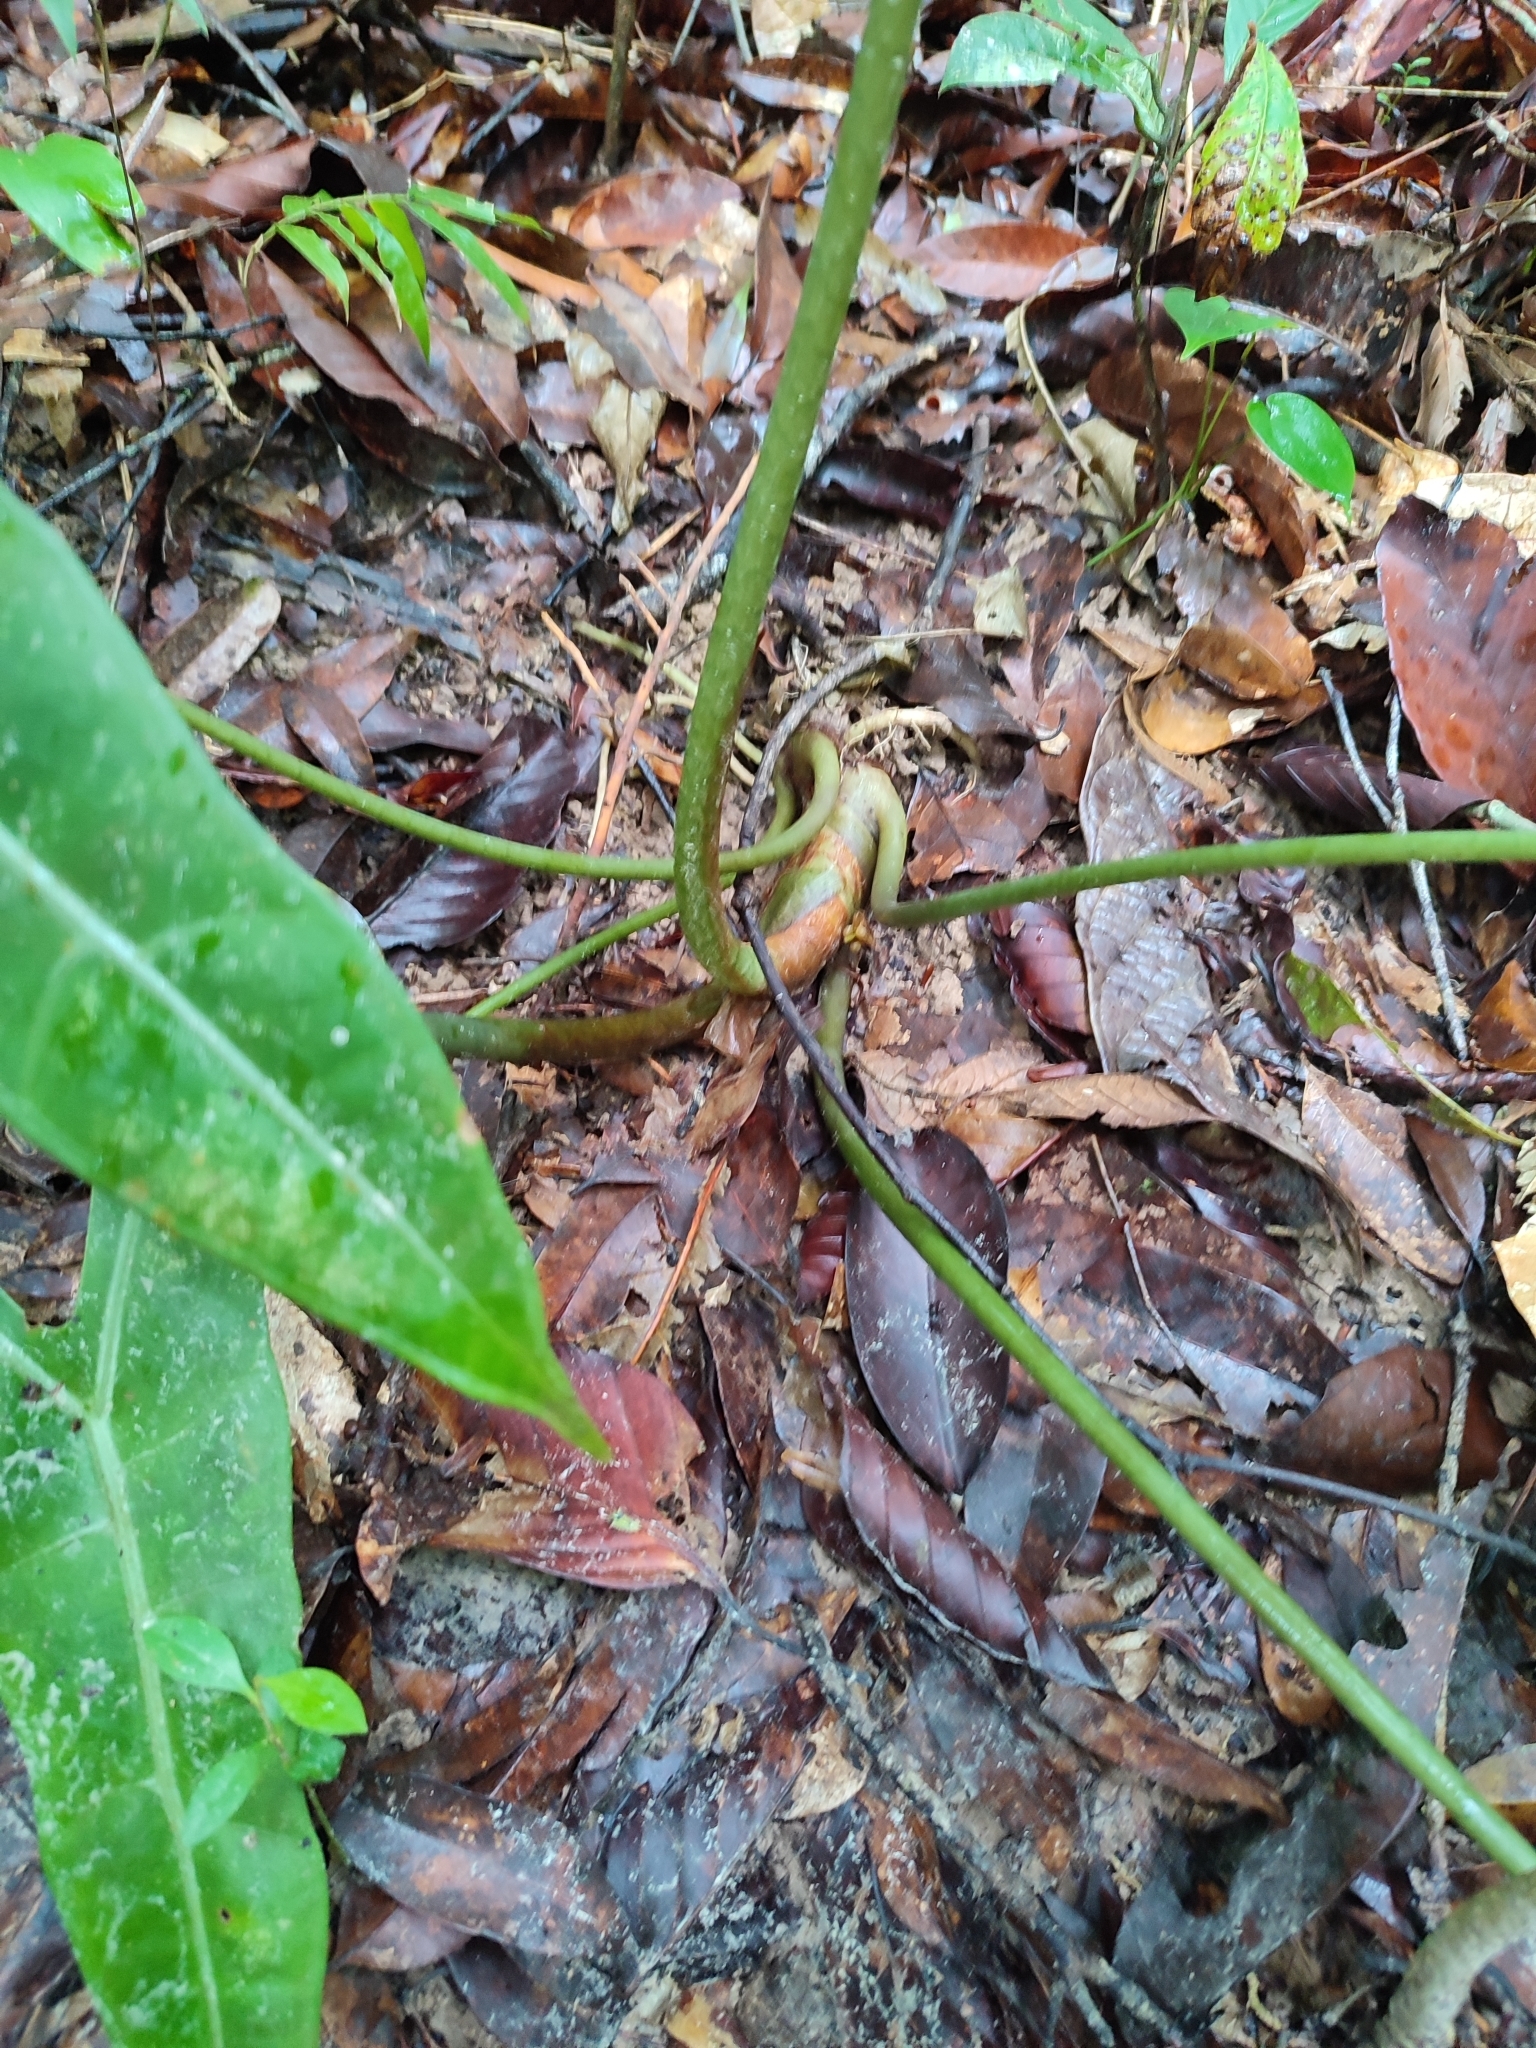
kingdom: Plantae
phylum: Tracheophyta
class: Liliopsida
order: Alismatales
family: Araceae
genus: Alocasia
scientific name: Alocasia longiloba
